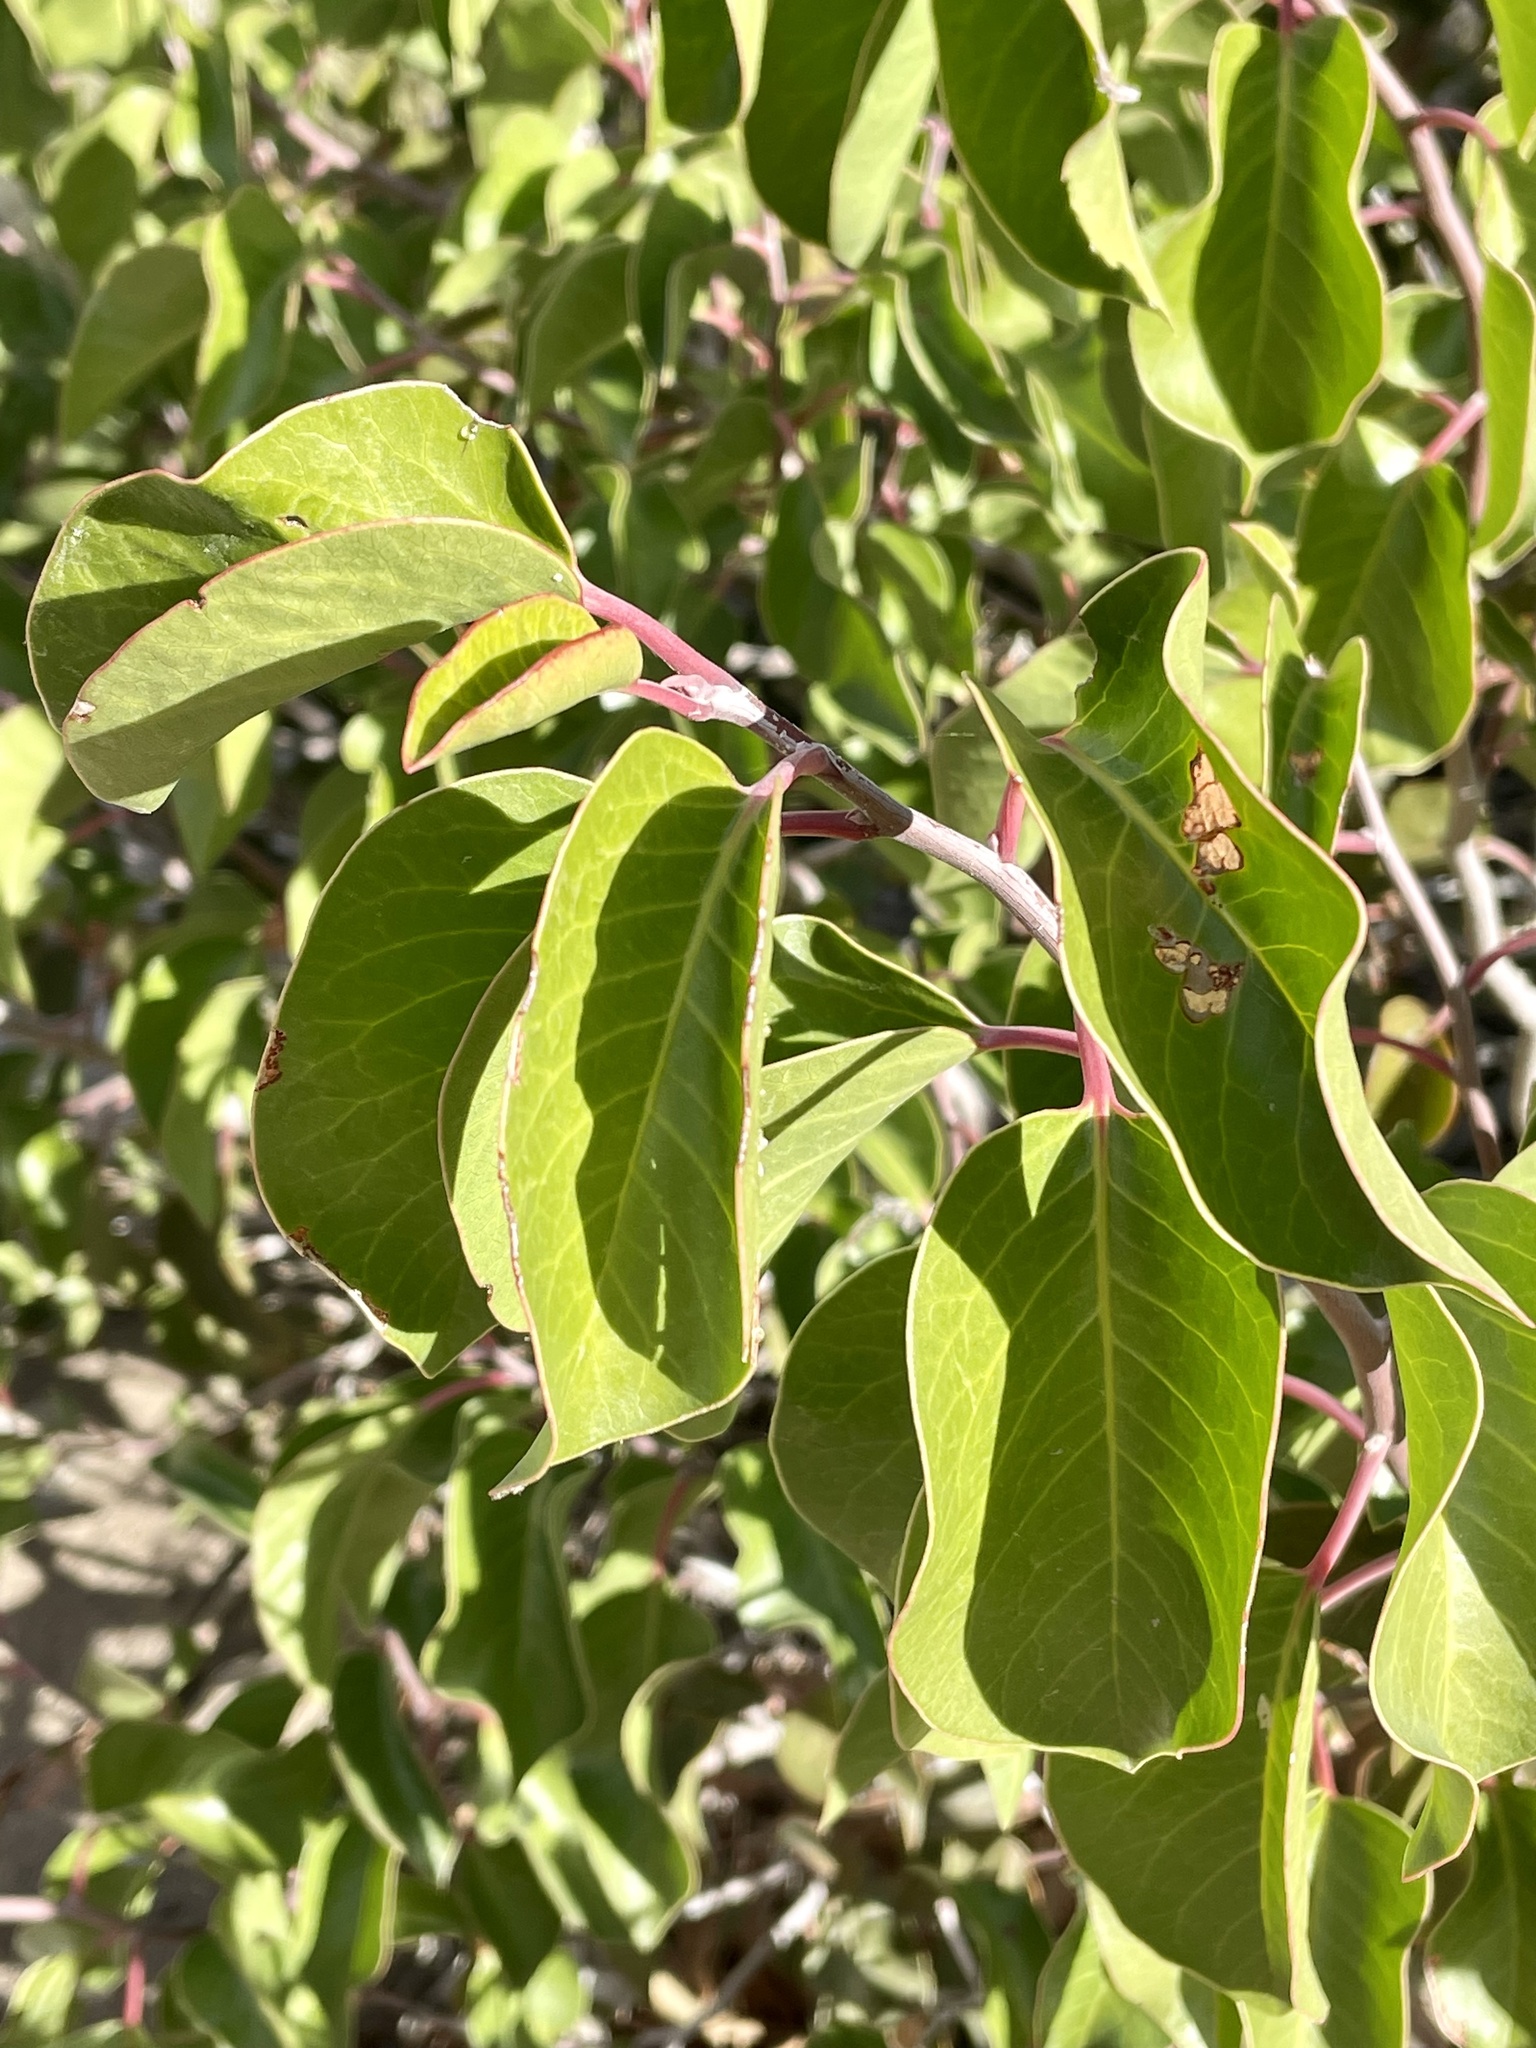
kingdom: Plantae
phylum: Tracheophyta
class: Magnoliopsida
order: Sapindales
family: Anacardiaceae
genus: Rhus
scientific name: Rhus ovata
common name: Sugar sumac
